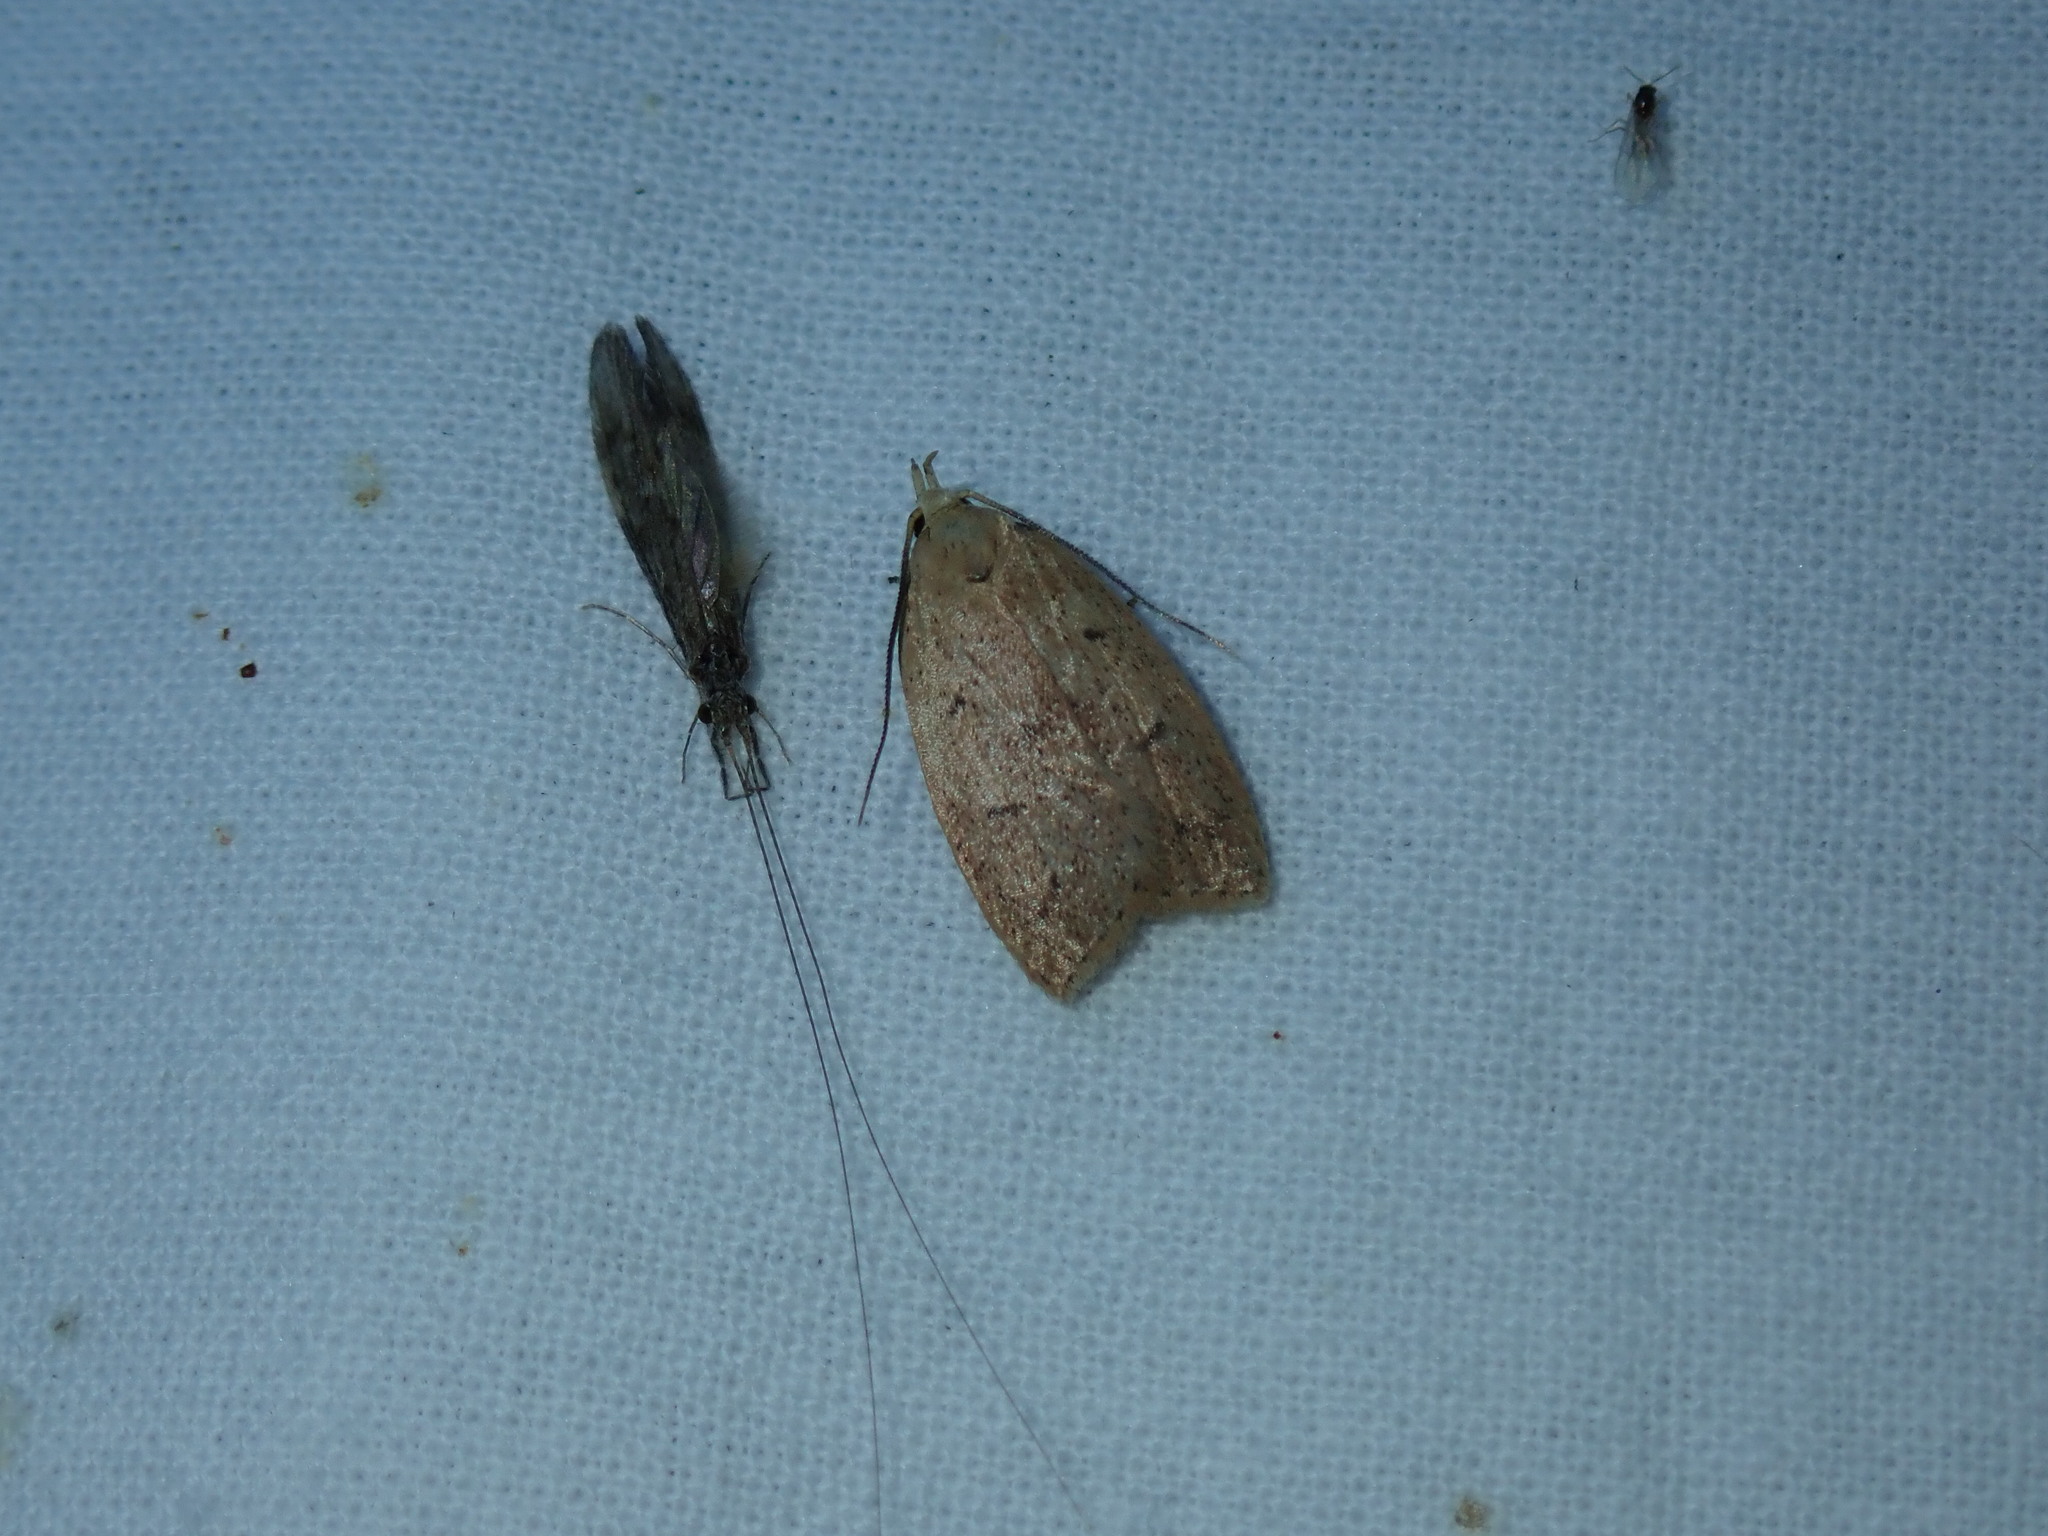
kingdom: Animalia
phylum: Arthropoda
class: Insecta
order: Lepidoptera
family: Peleopodidae
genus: Machimia
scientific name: Machimia tentoriferella
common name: Gold-striped leaftier moth
